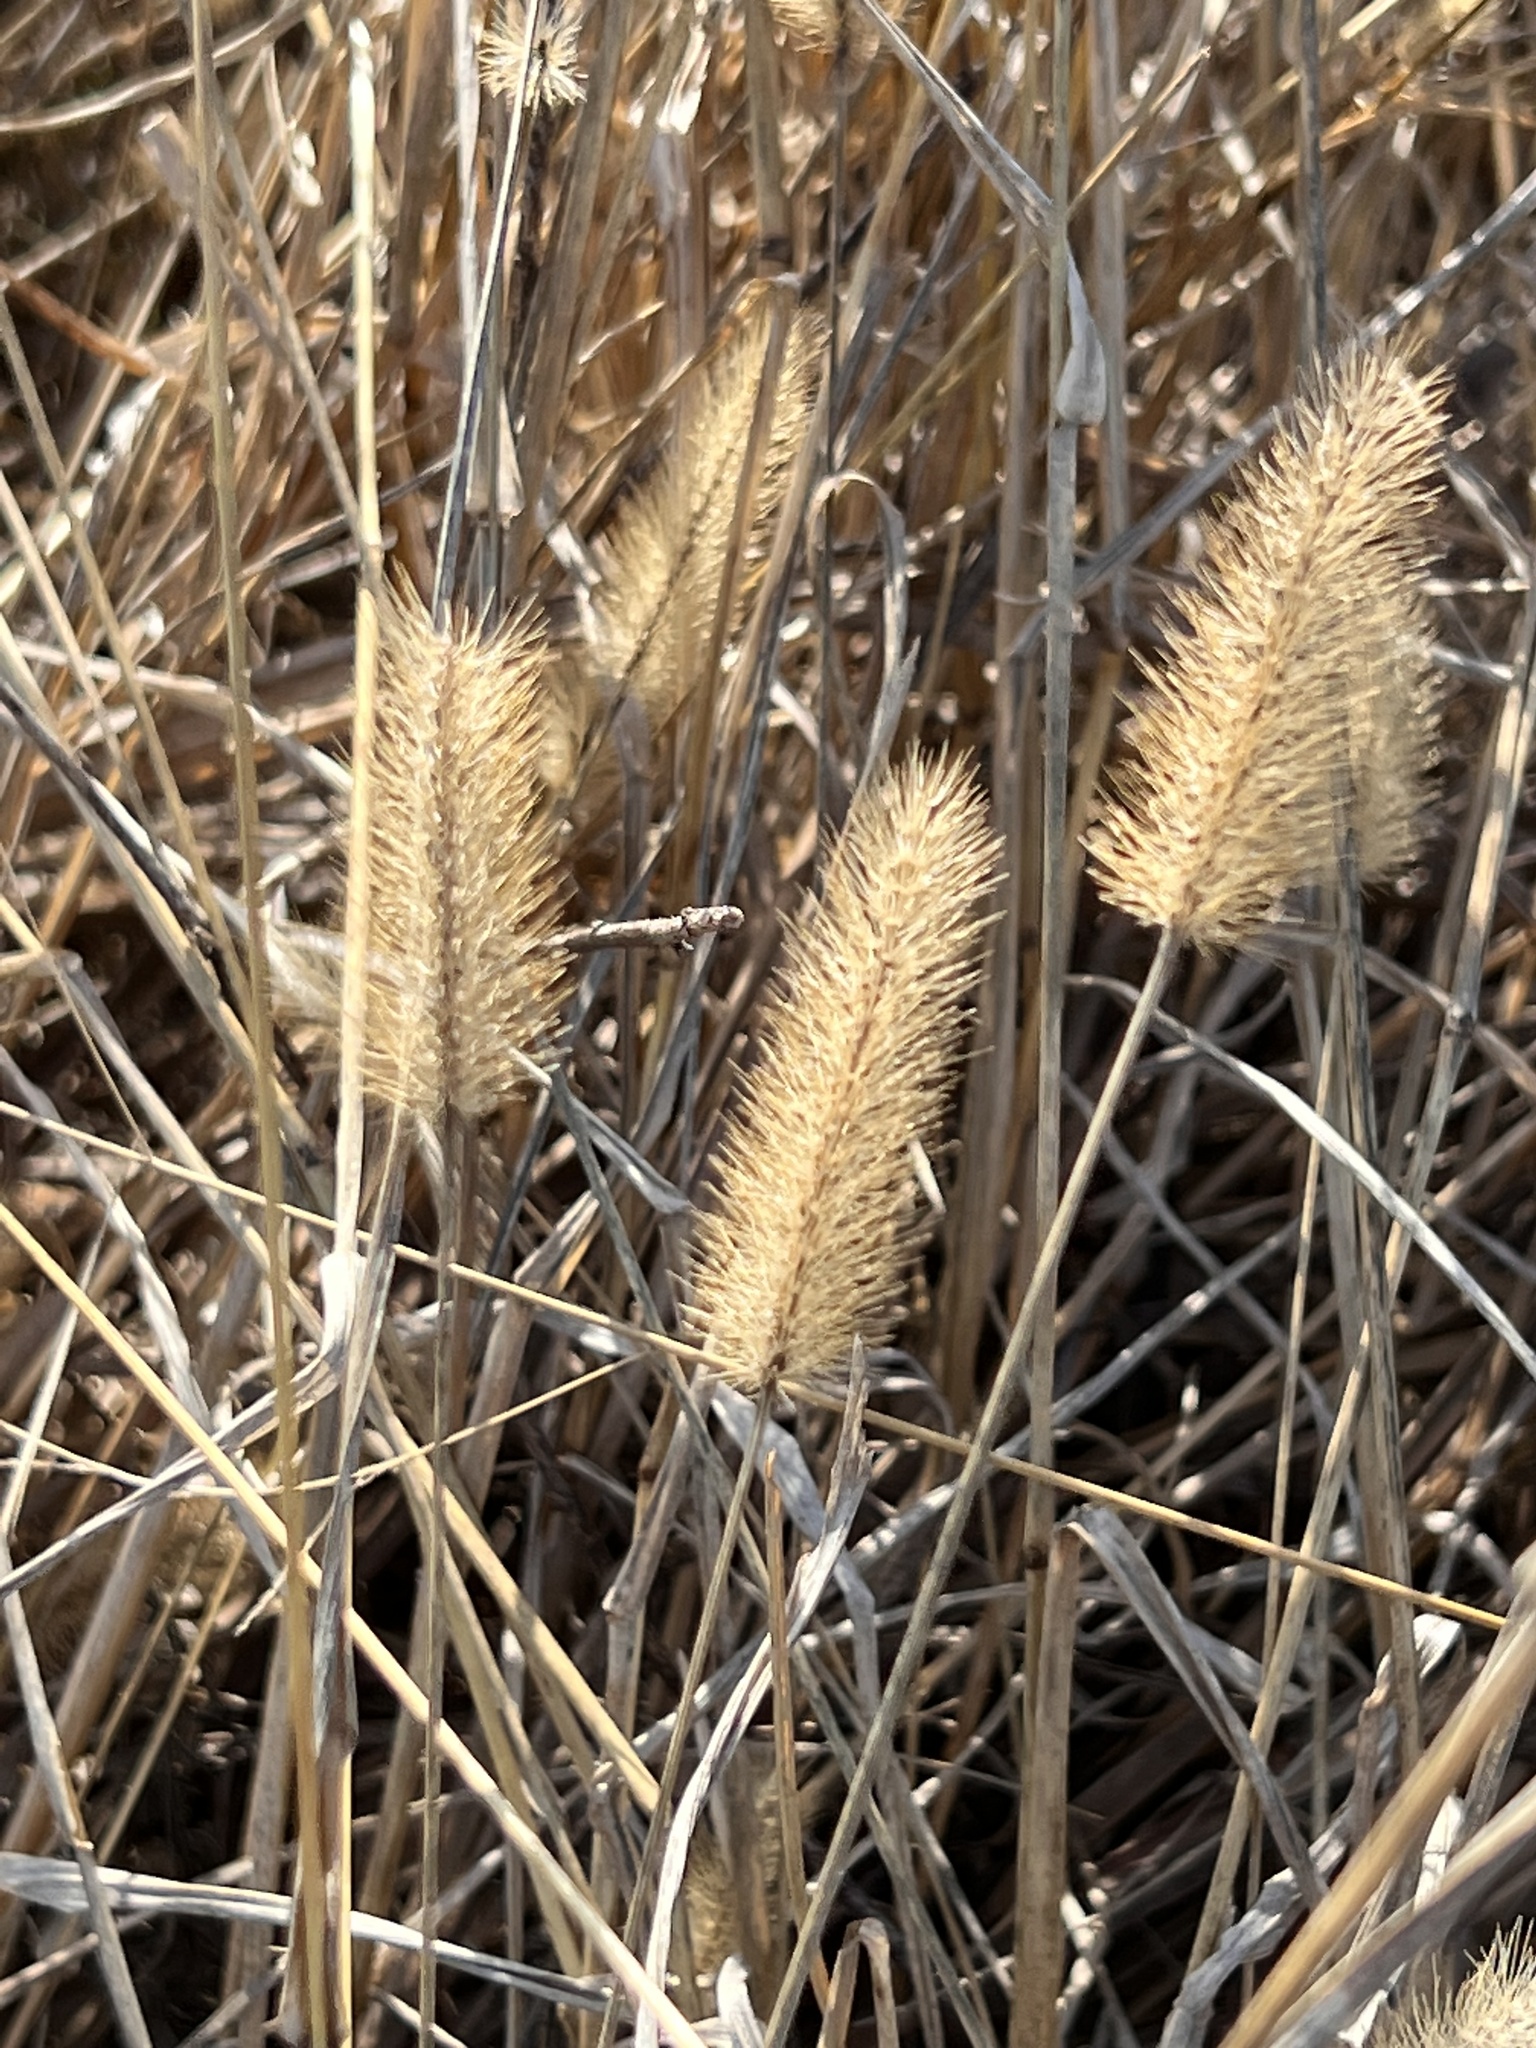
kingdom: Plantae
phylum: Tracheophyta
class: Liliopsida
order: Poales
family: Poaceae
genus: Setaria
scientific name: Setaria parviflora
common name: Knotroot bristle-grass
